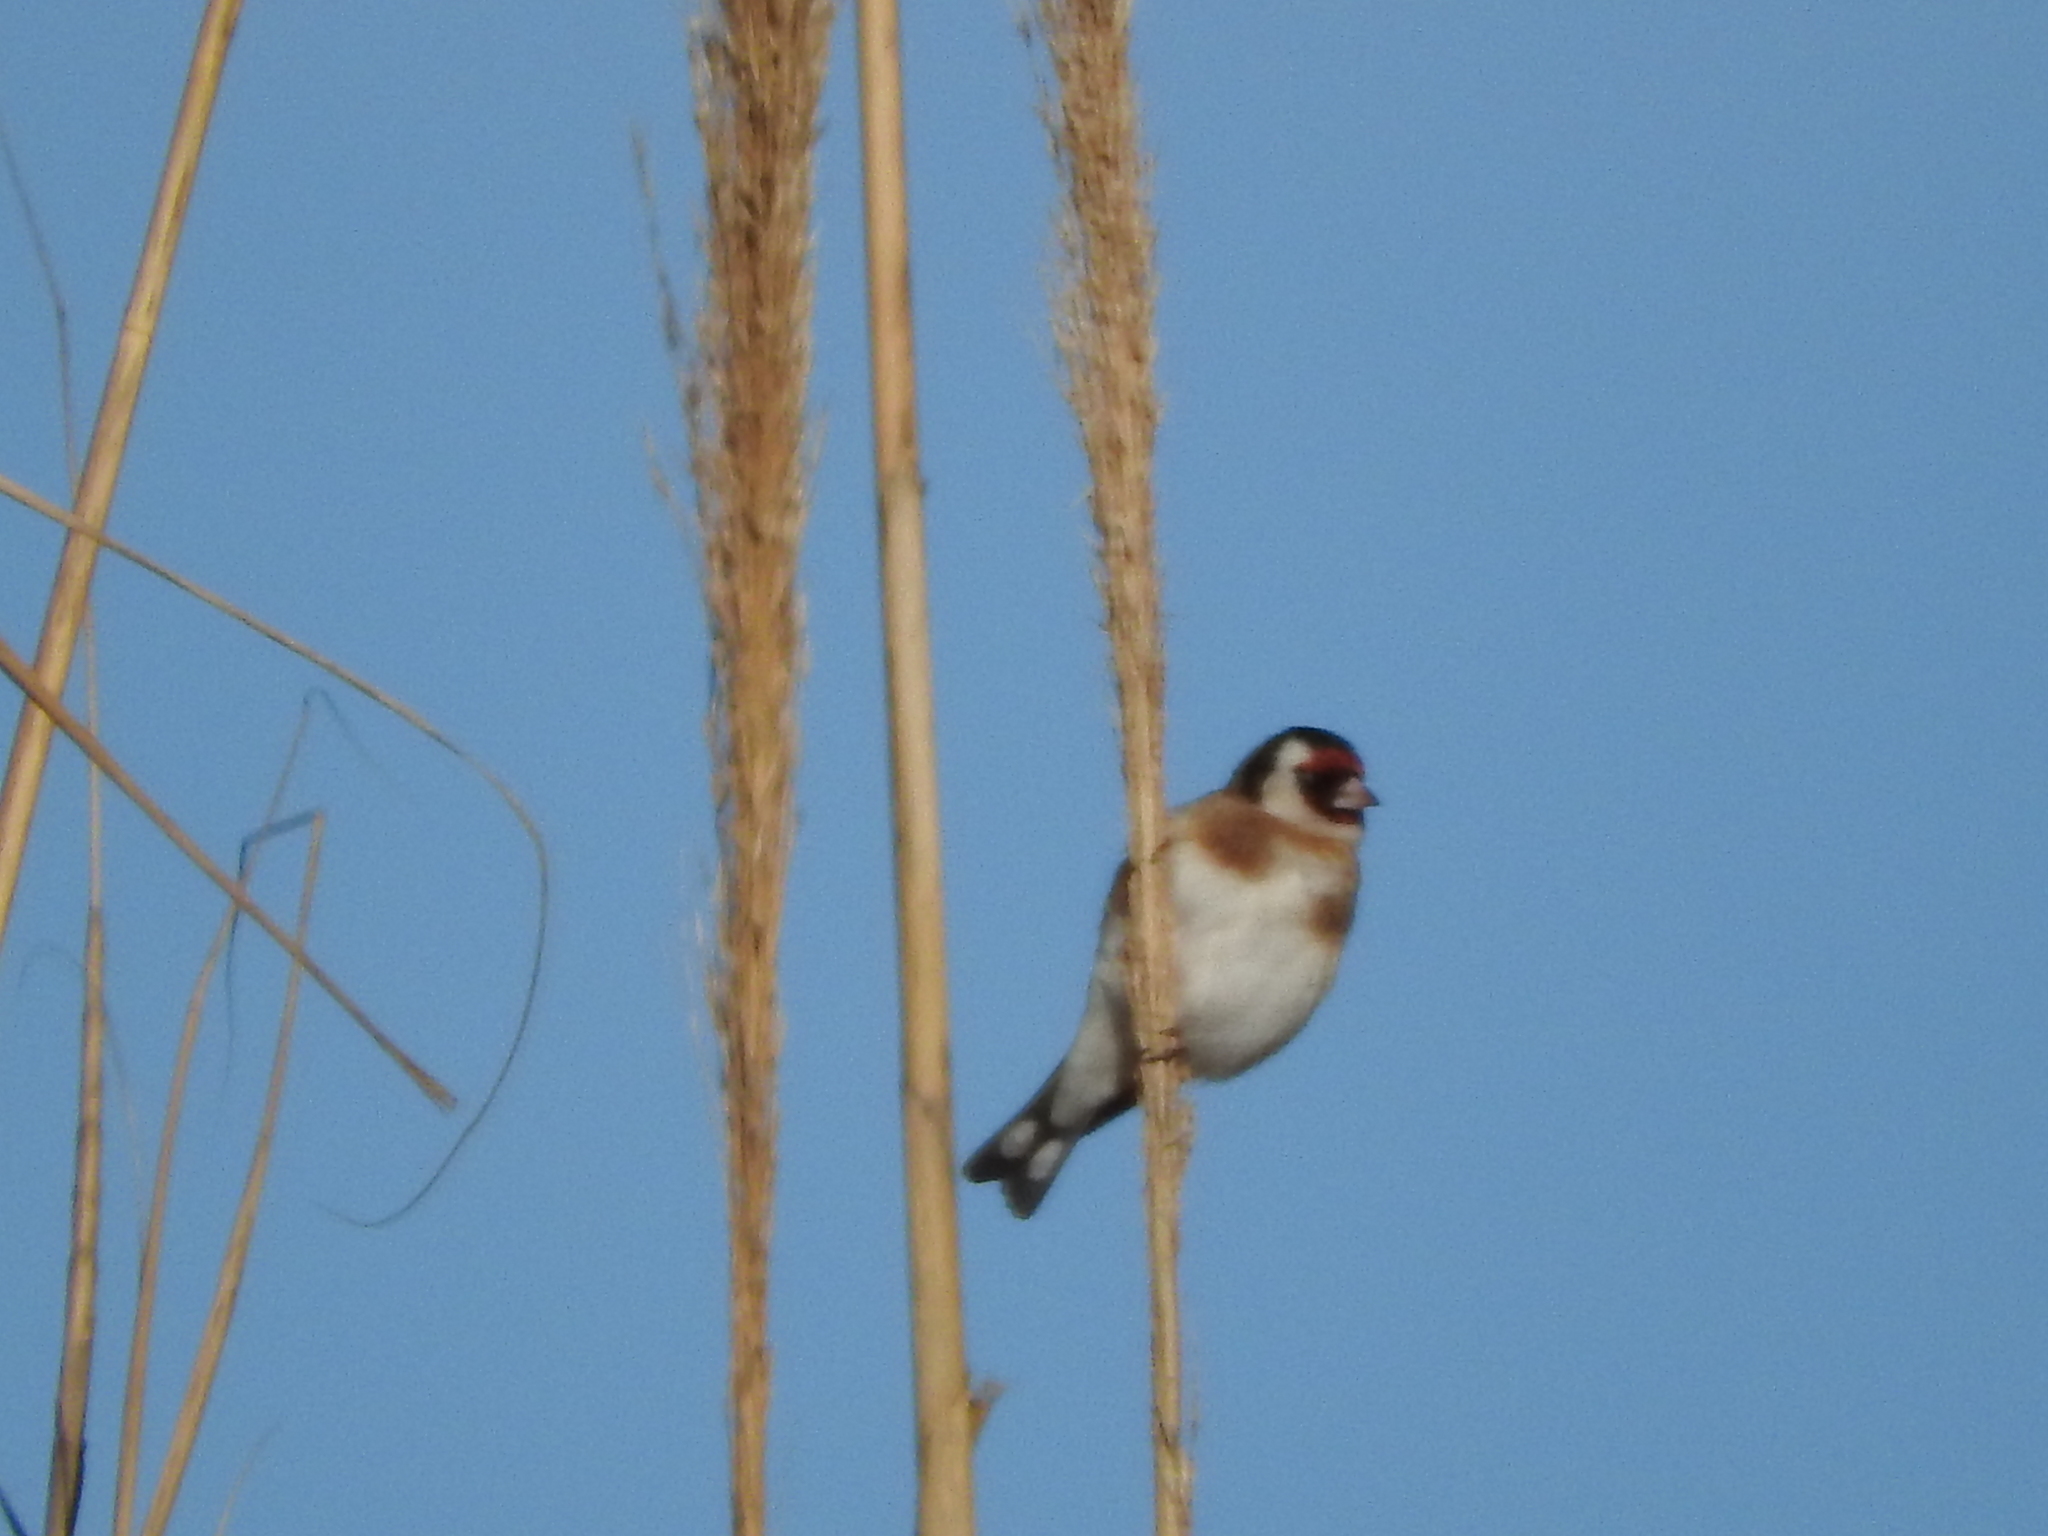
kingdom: Animalia
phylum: Chordata
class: Aves
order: Passeriformes
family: Fringillidae
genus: Carduelis
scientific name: Carduelis carduelis
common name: European goldfinch
